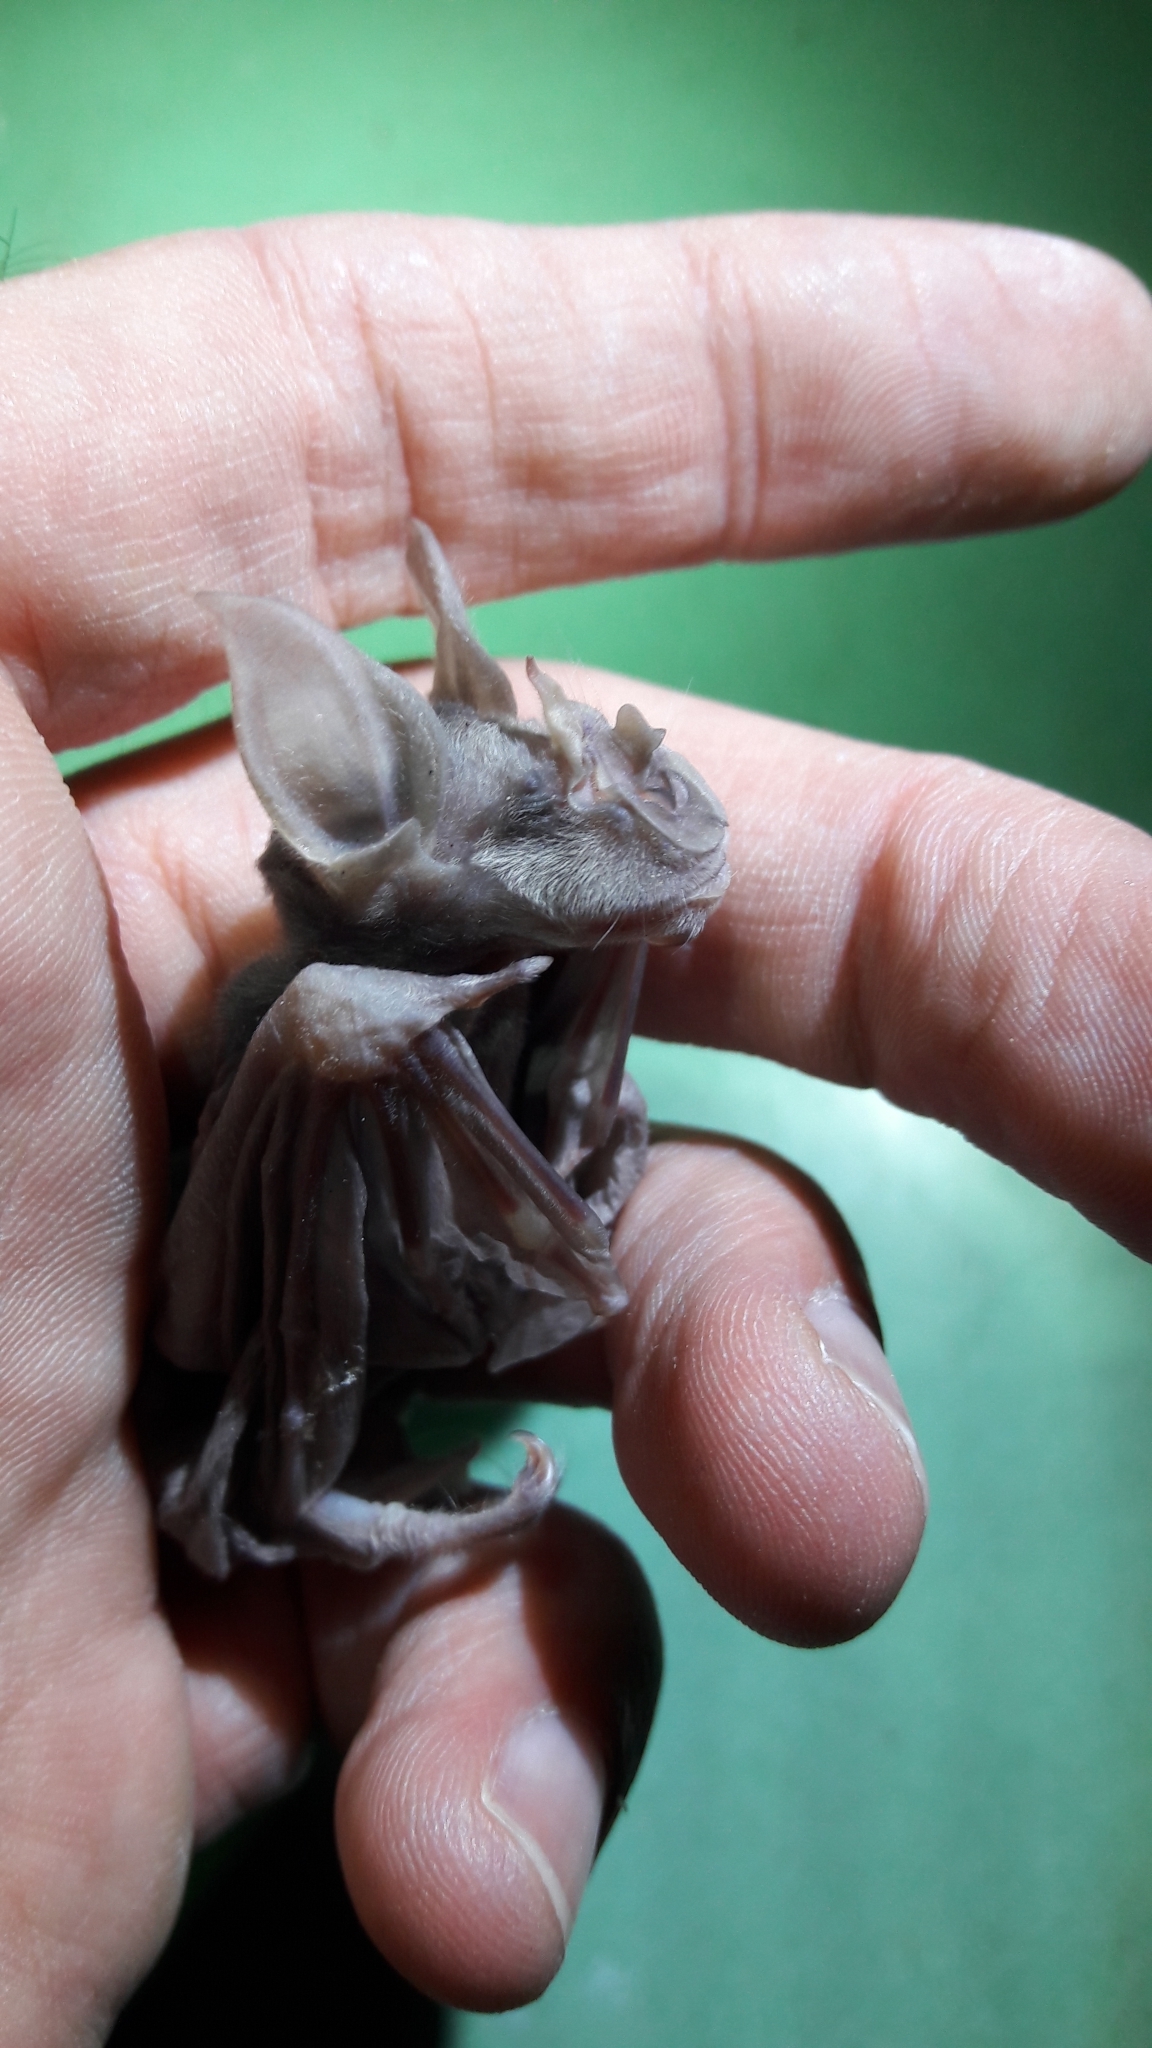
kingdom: Animalia
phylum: Chordata
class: Mammalia
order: Chiroptera
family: Rhinolophidae
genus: Rhinolophus
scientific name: Rhinolophus ferrumequinum
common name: Greater horseshoe bat
